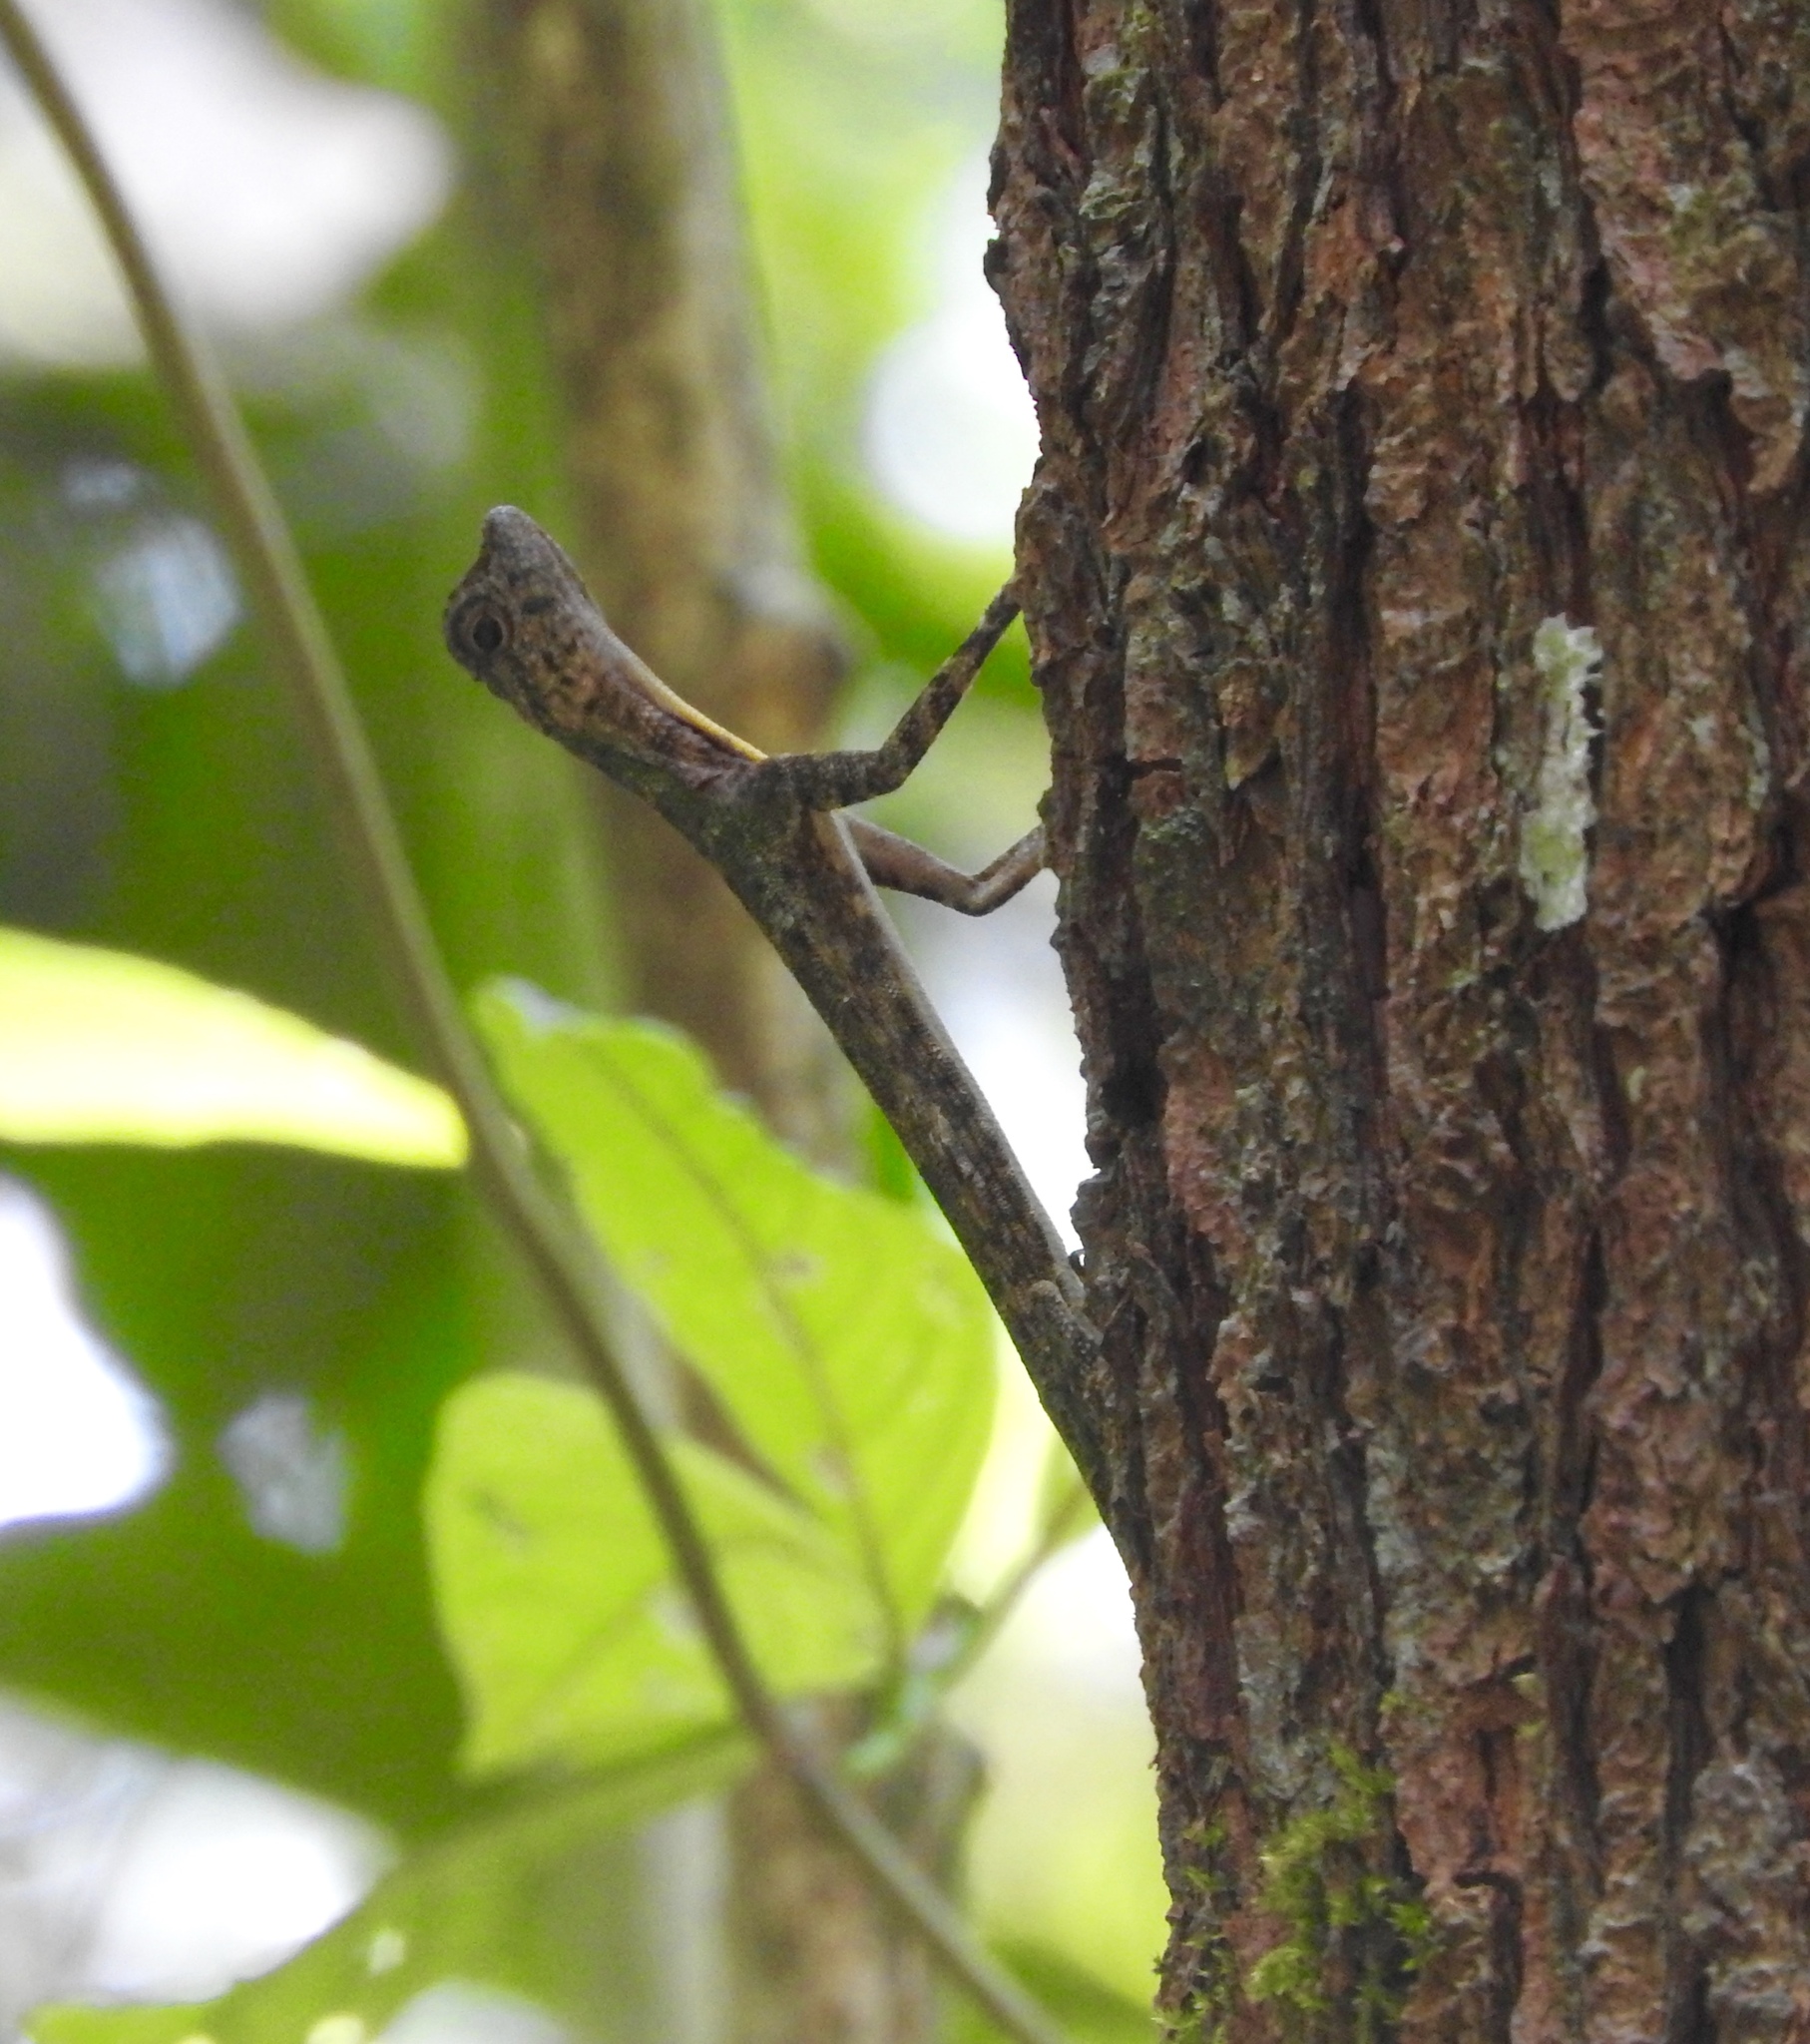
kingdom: Animalia
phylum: Chordata
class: Squamata
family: Agamidae
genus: Draco
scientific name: Draco haematopogon
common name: Red-barbed flying dragon
